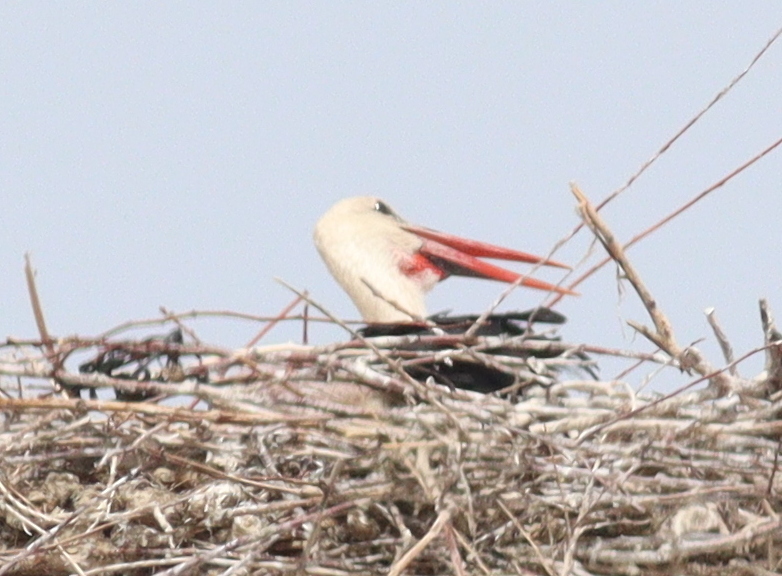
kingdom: Animalia
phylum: Chordata
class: Aves
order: Ciconiiformes
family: Ciconiidae
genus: Ciconia
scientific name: Ciconia ciconia
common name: White stork
